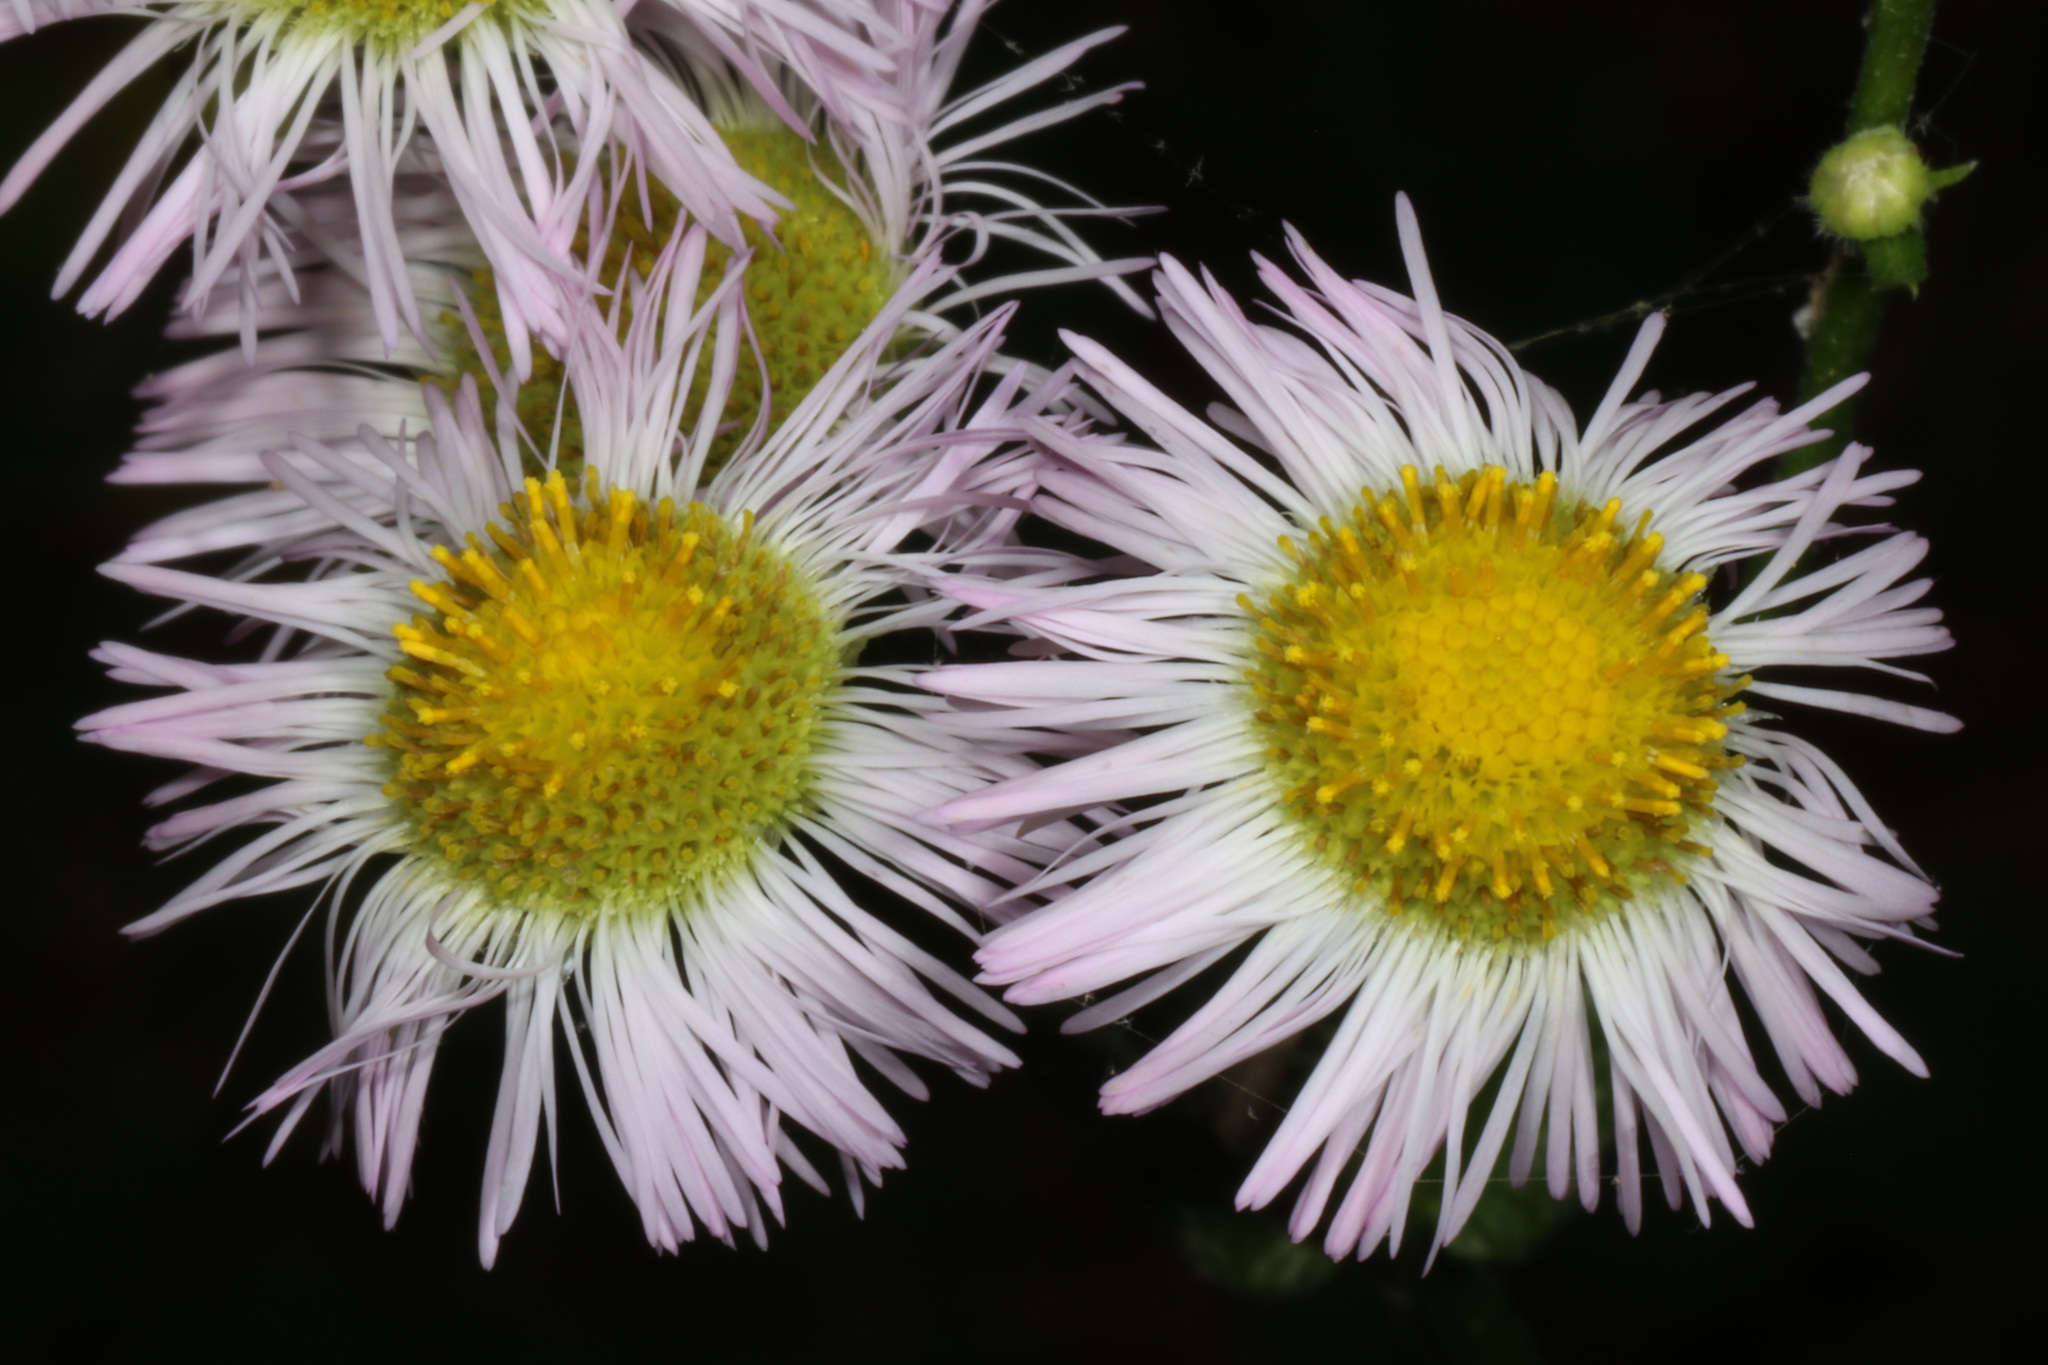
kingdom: Plantae
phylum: Tracheophyta
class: Magnoliopsida
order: Asterales
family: Asteraceae
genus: Erigeron
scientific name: Erigeron philadelphicus
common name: Robin's-plantain
